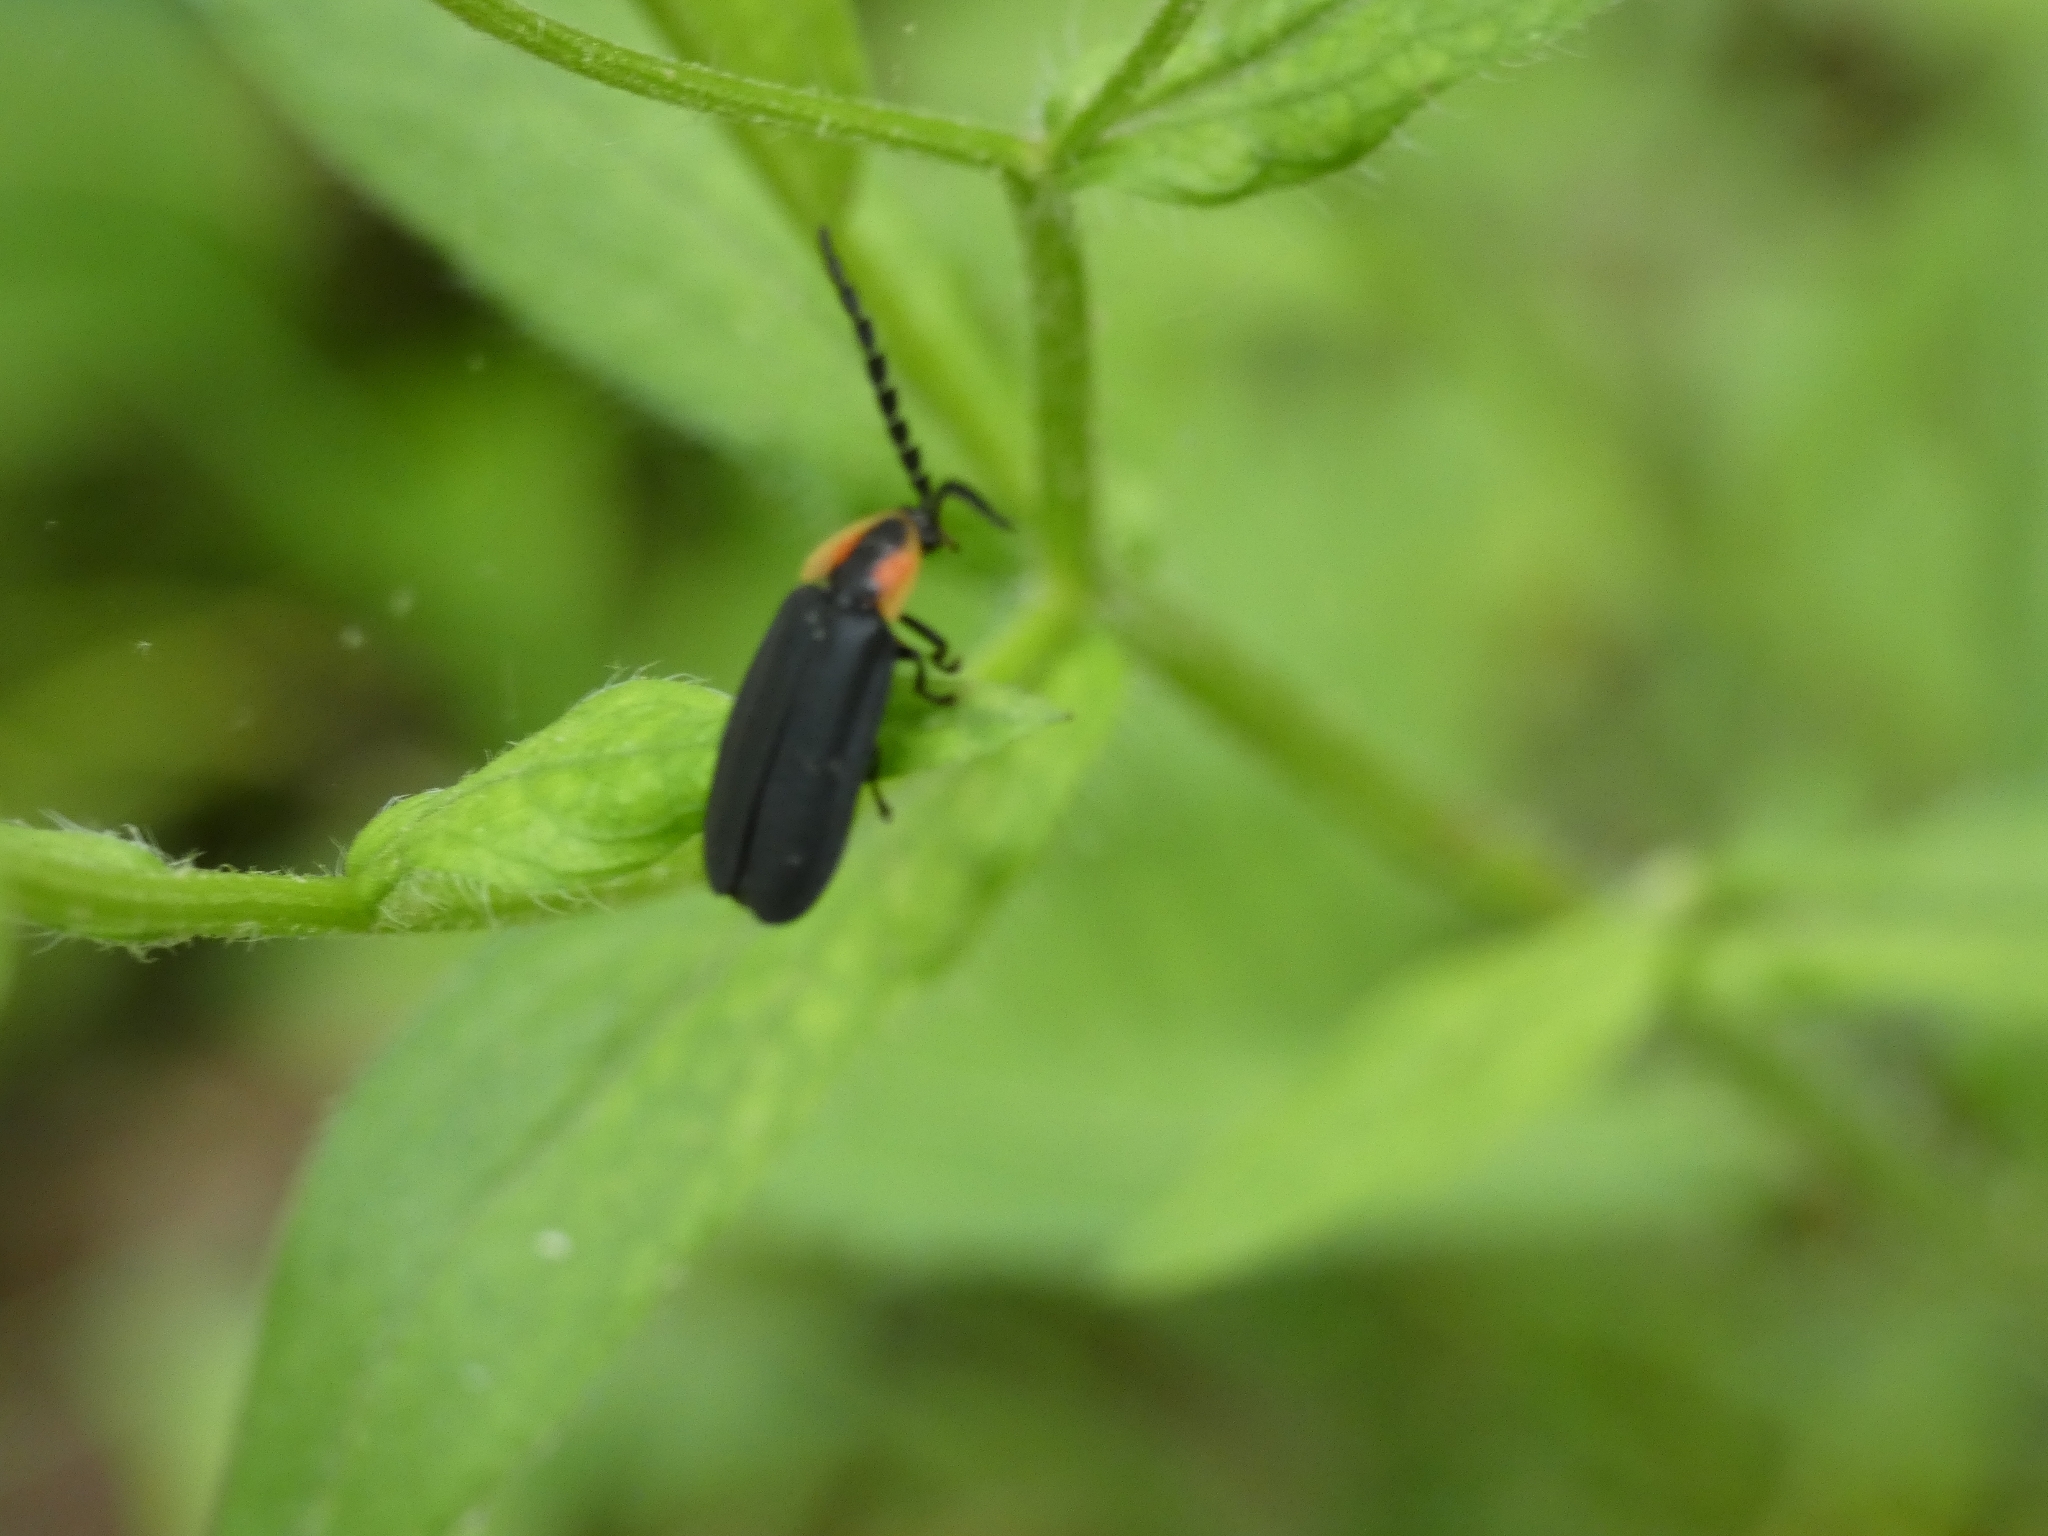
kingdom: Animalia
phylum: Arthropoda
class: Insecta
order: Coleoptera
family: Lampyridae
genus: Lucidota
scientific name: Lucidota atra
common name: Black firefly
